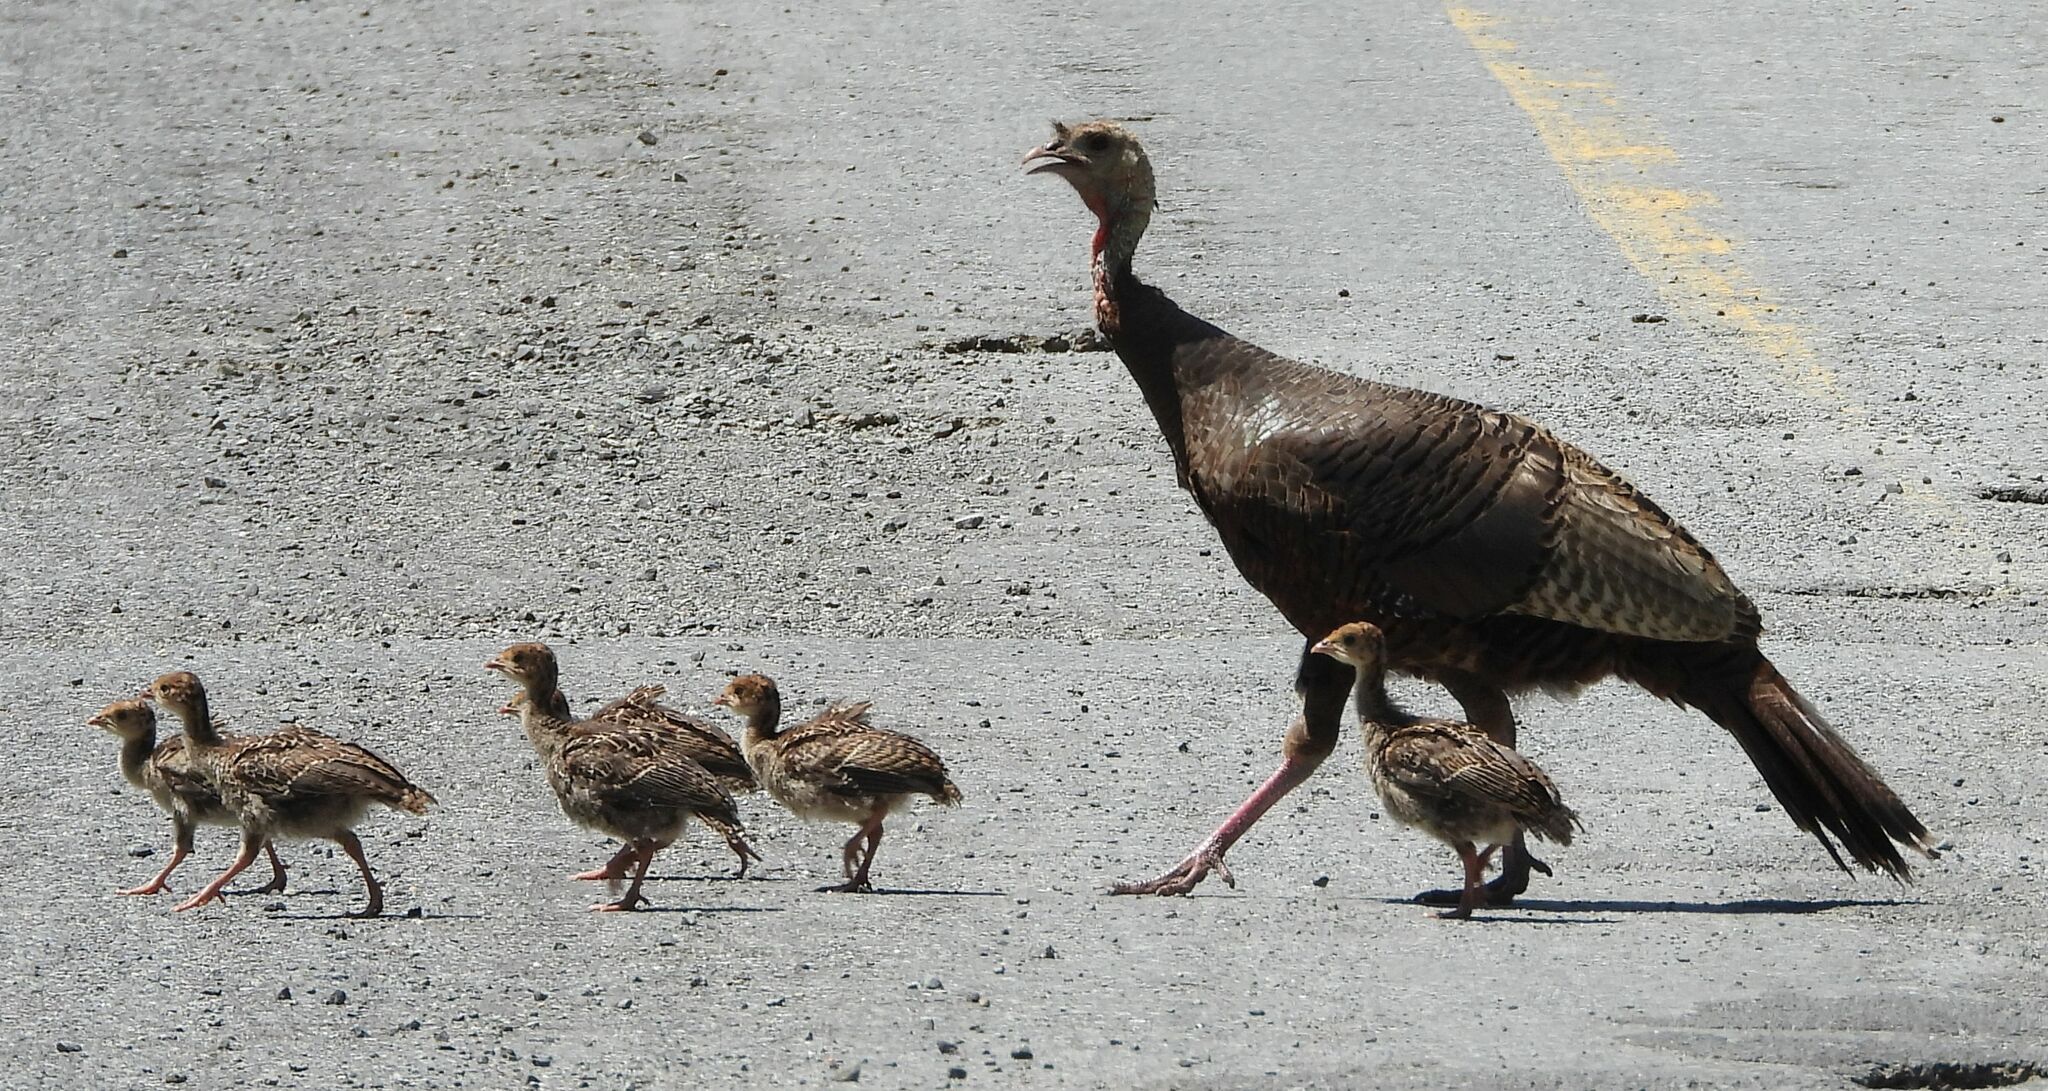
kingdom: Animalia
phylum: Chordata
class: Aves
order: Galliformes
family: Phasianidae
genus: Meleagris
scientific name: Meleagris gallopavo
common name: Wild turkey
